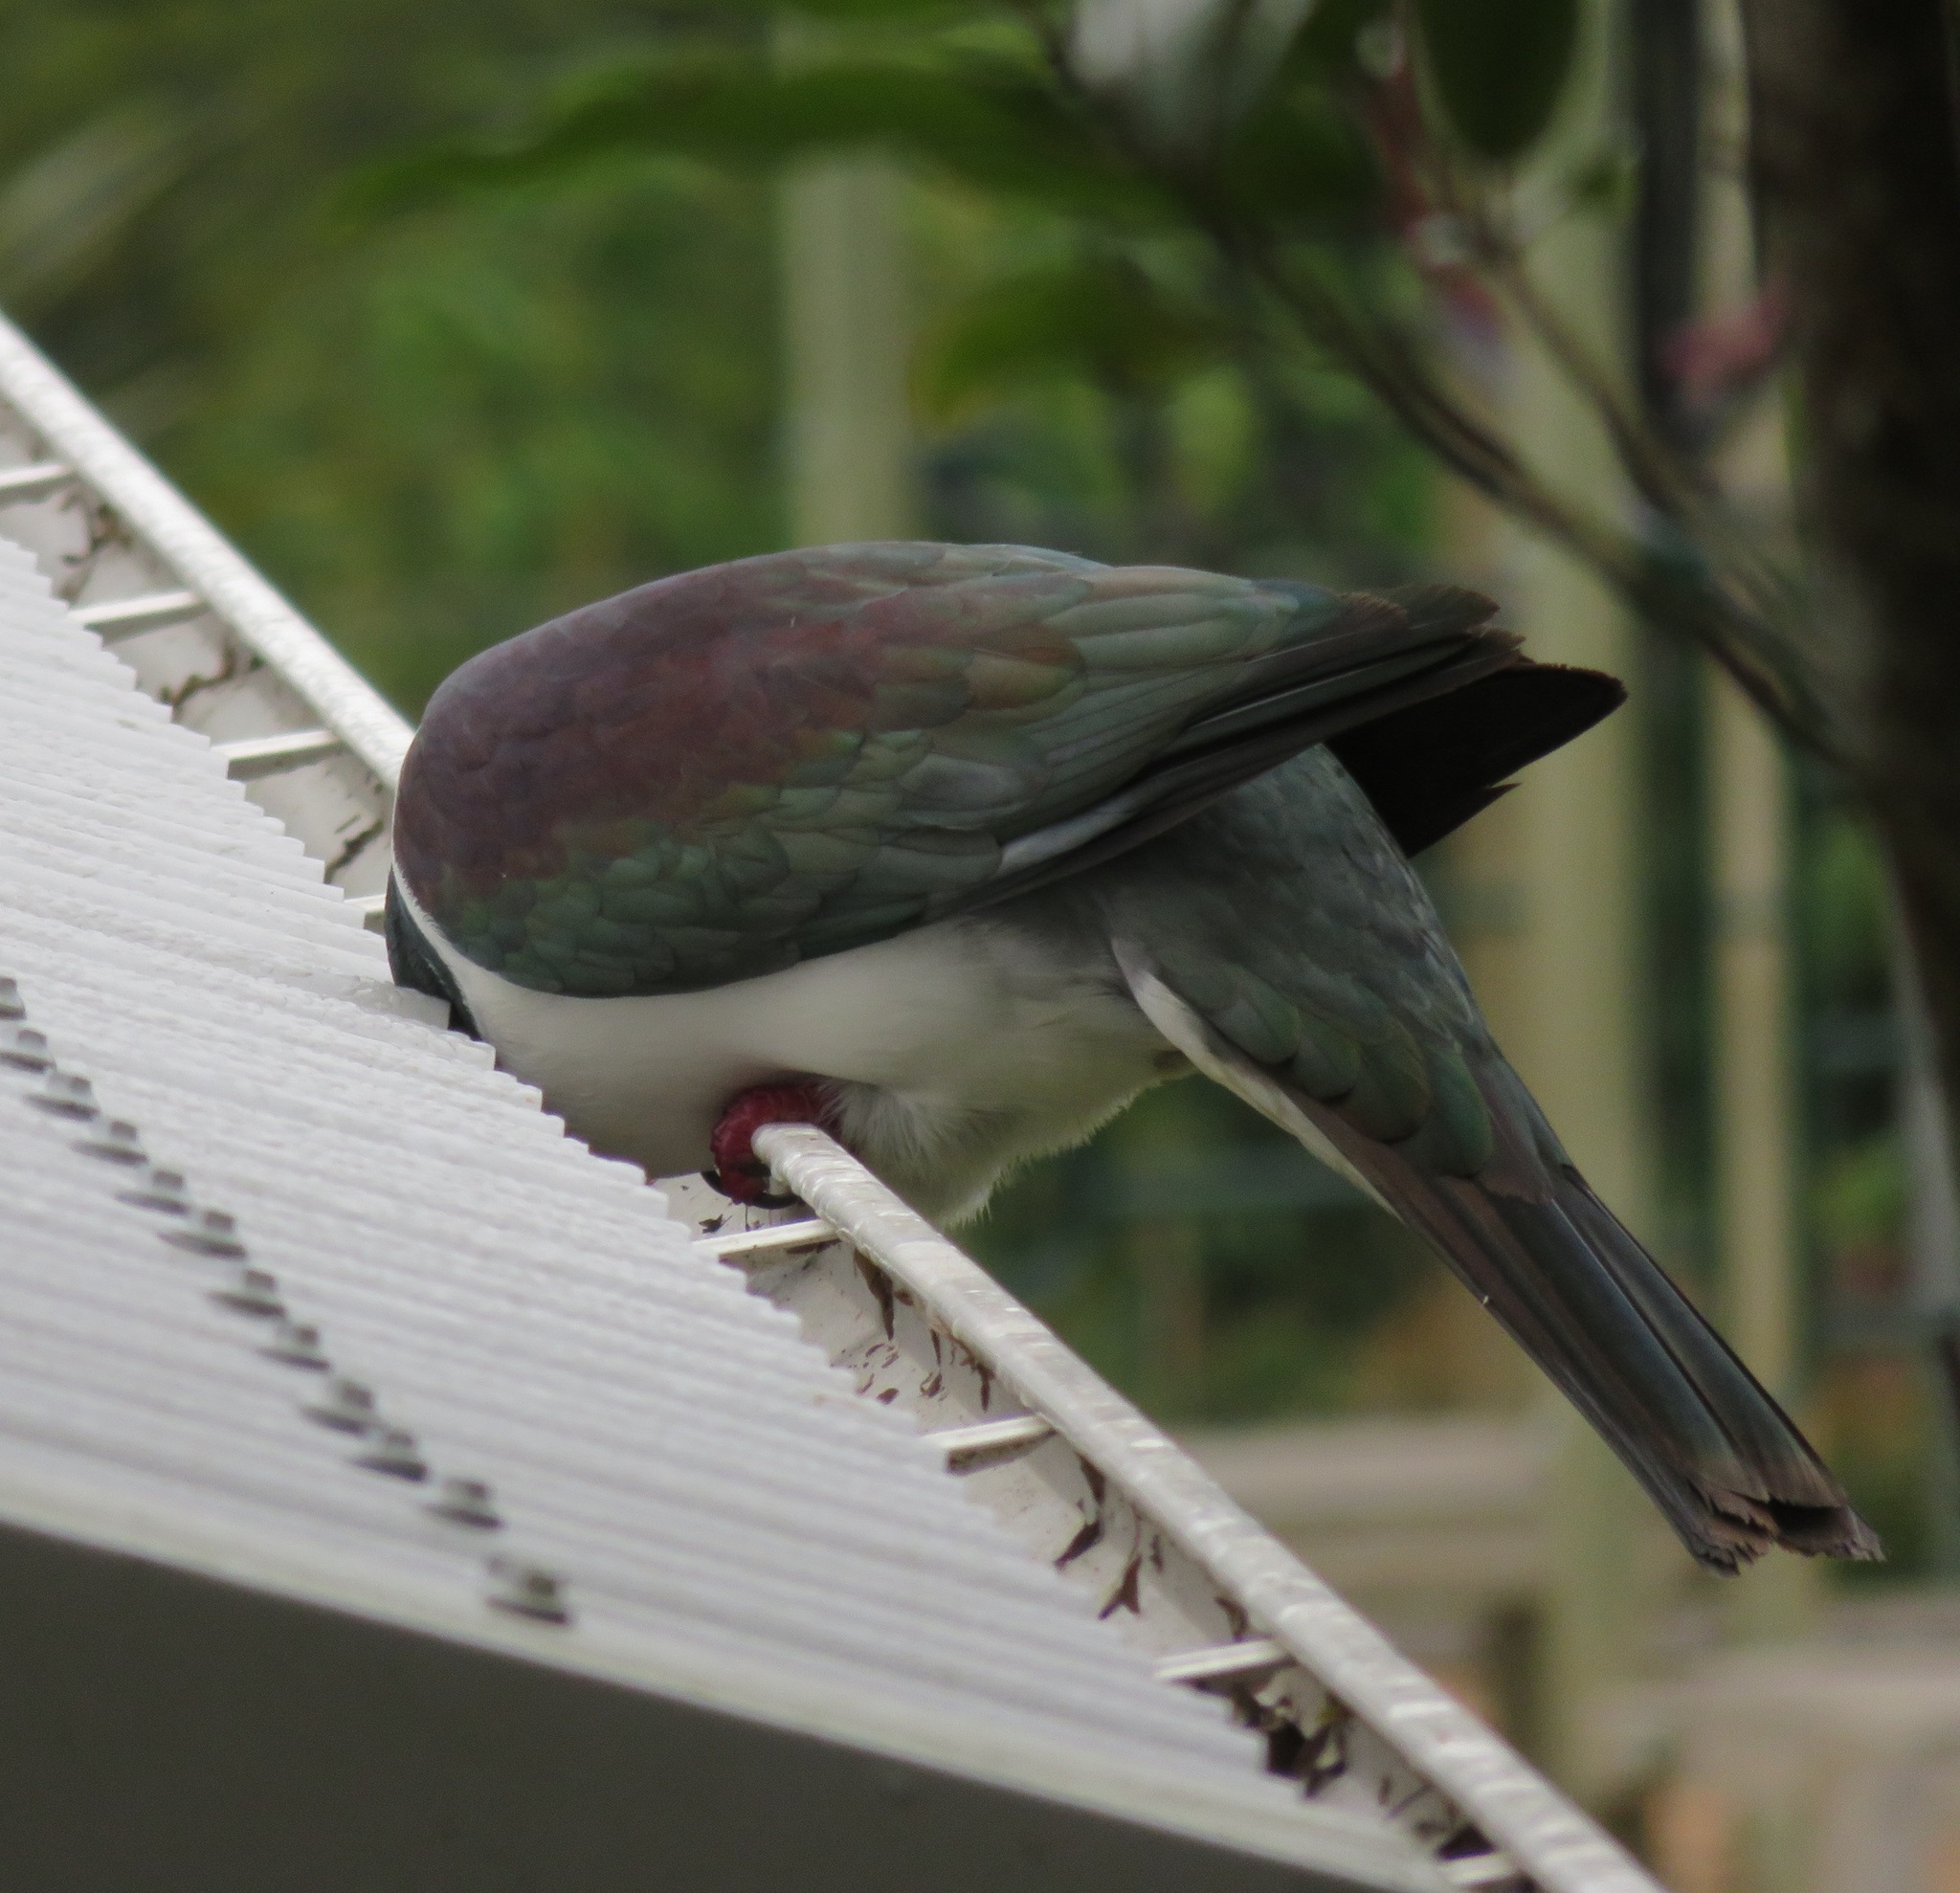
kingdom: Animalia
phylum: Chordata
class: Aves
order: Columbiformes
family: Columbidae
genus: Hemiphaga
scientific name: Hemiphaga novaeseelandiae
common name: New zealand pigeon
